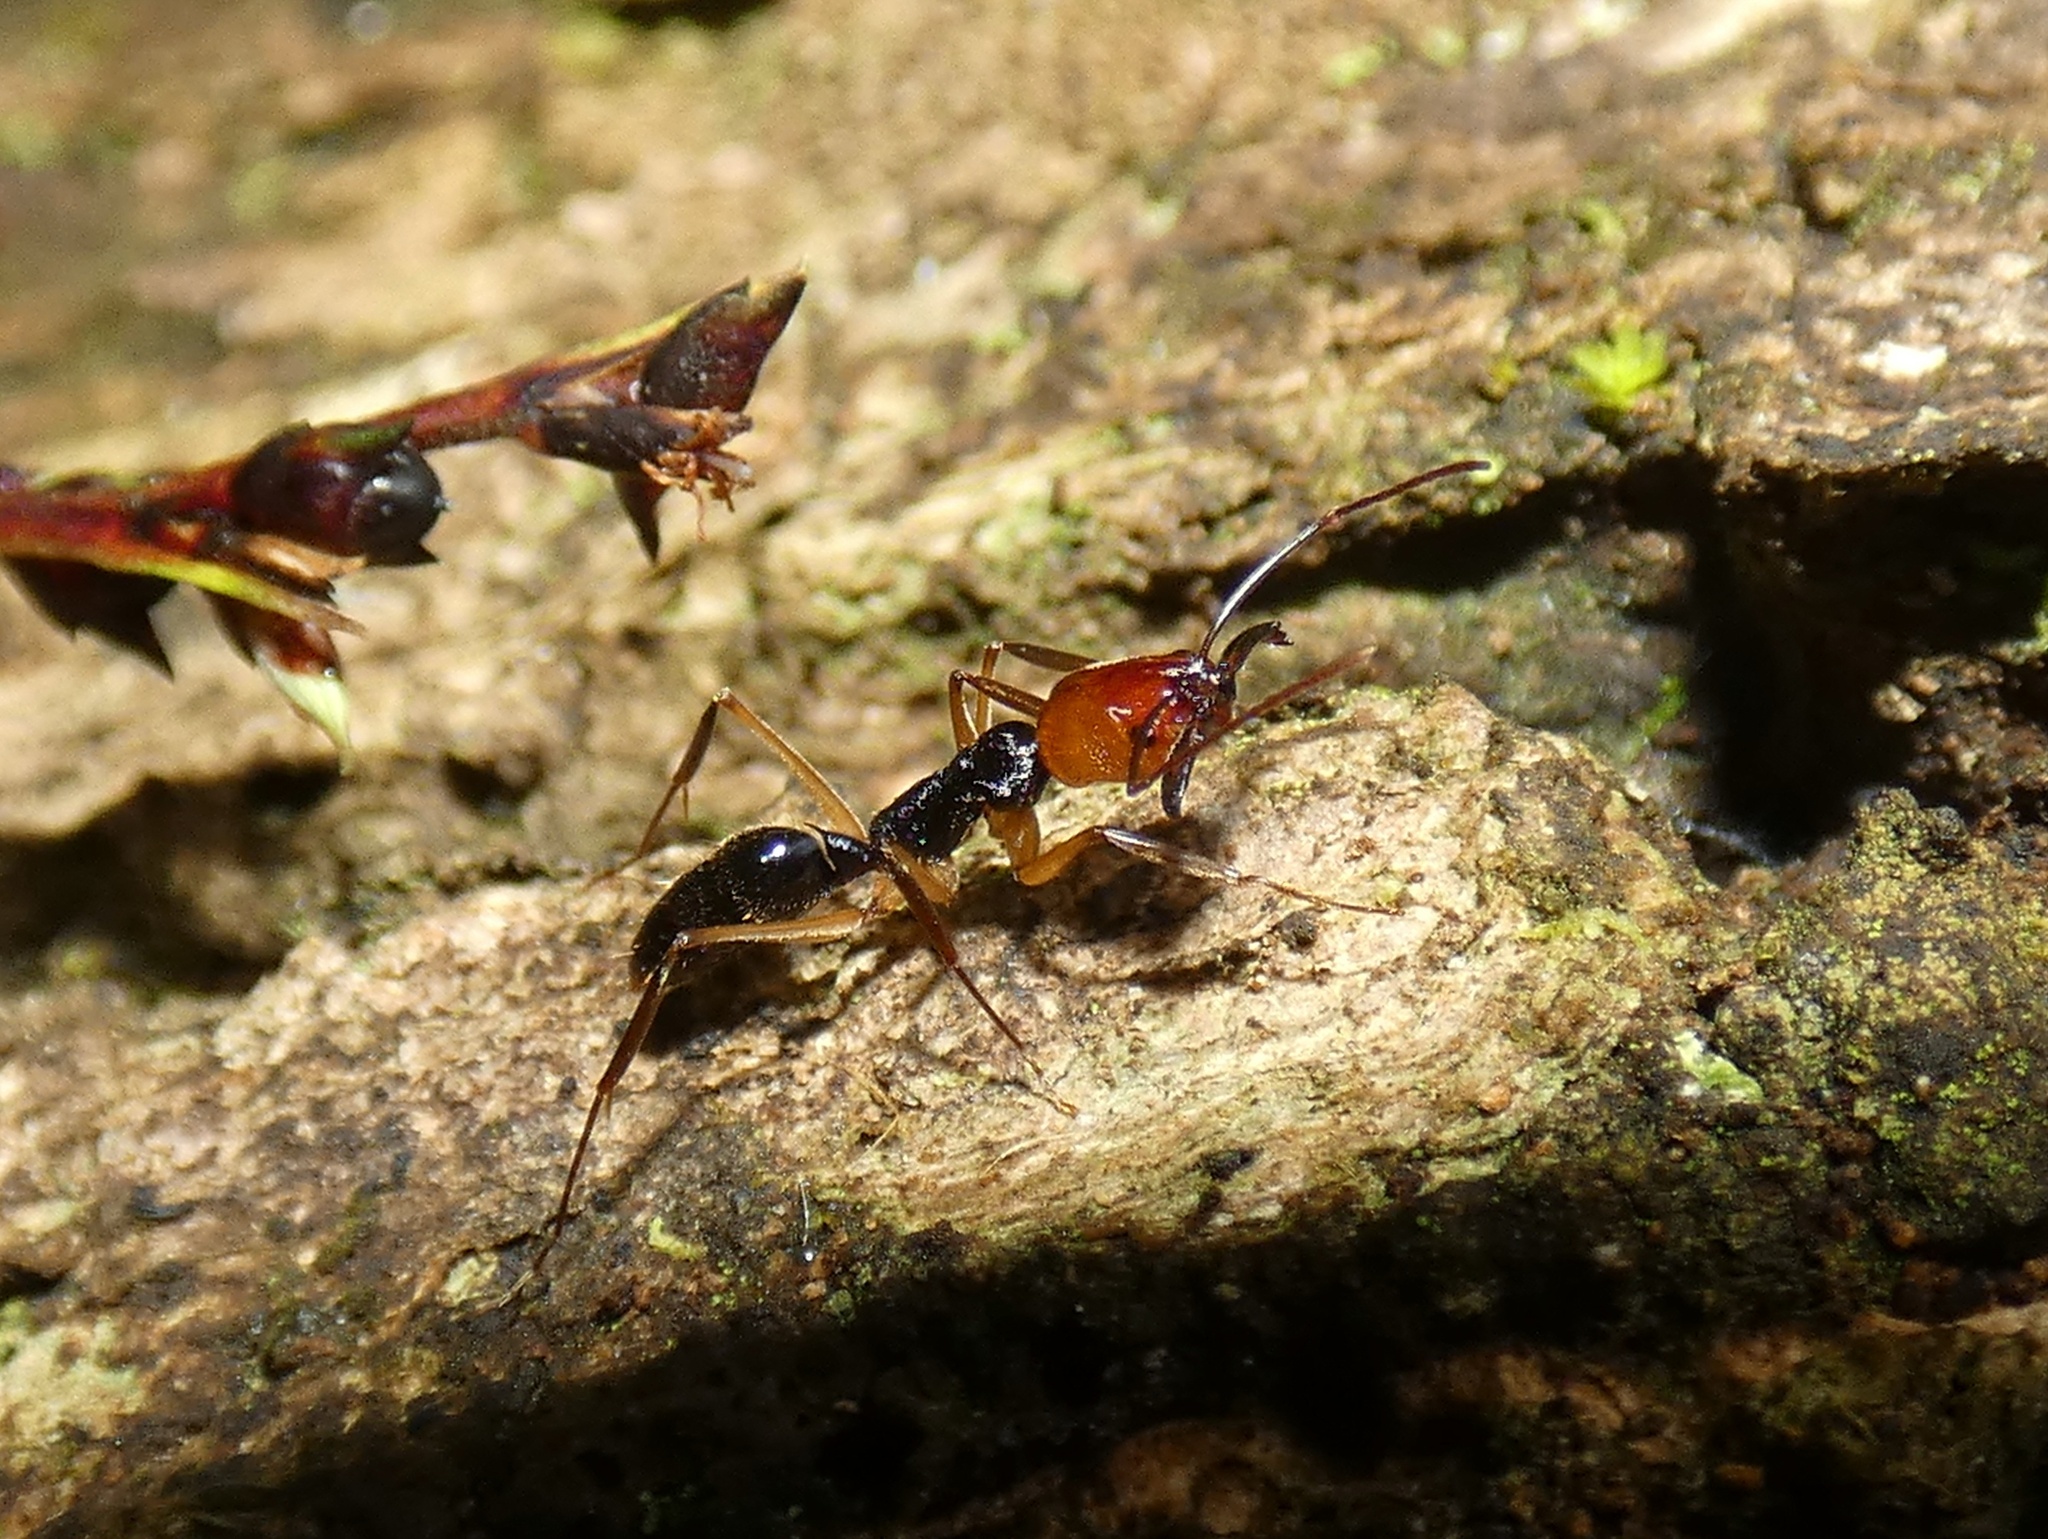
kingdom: Animalia
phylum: Arthropoda
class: Insecta
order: Hymenoptera
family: Formicidae
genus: Odontomachus
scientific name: Odontomachus erythrocephalus
